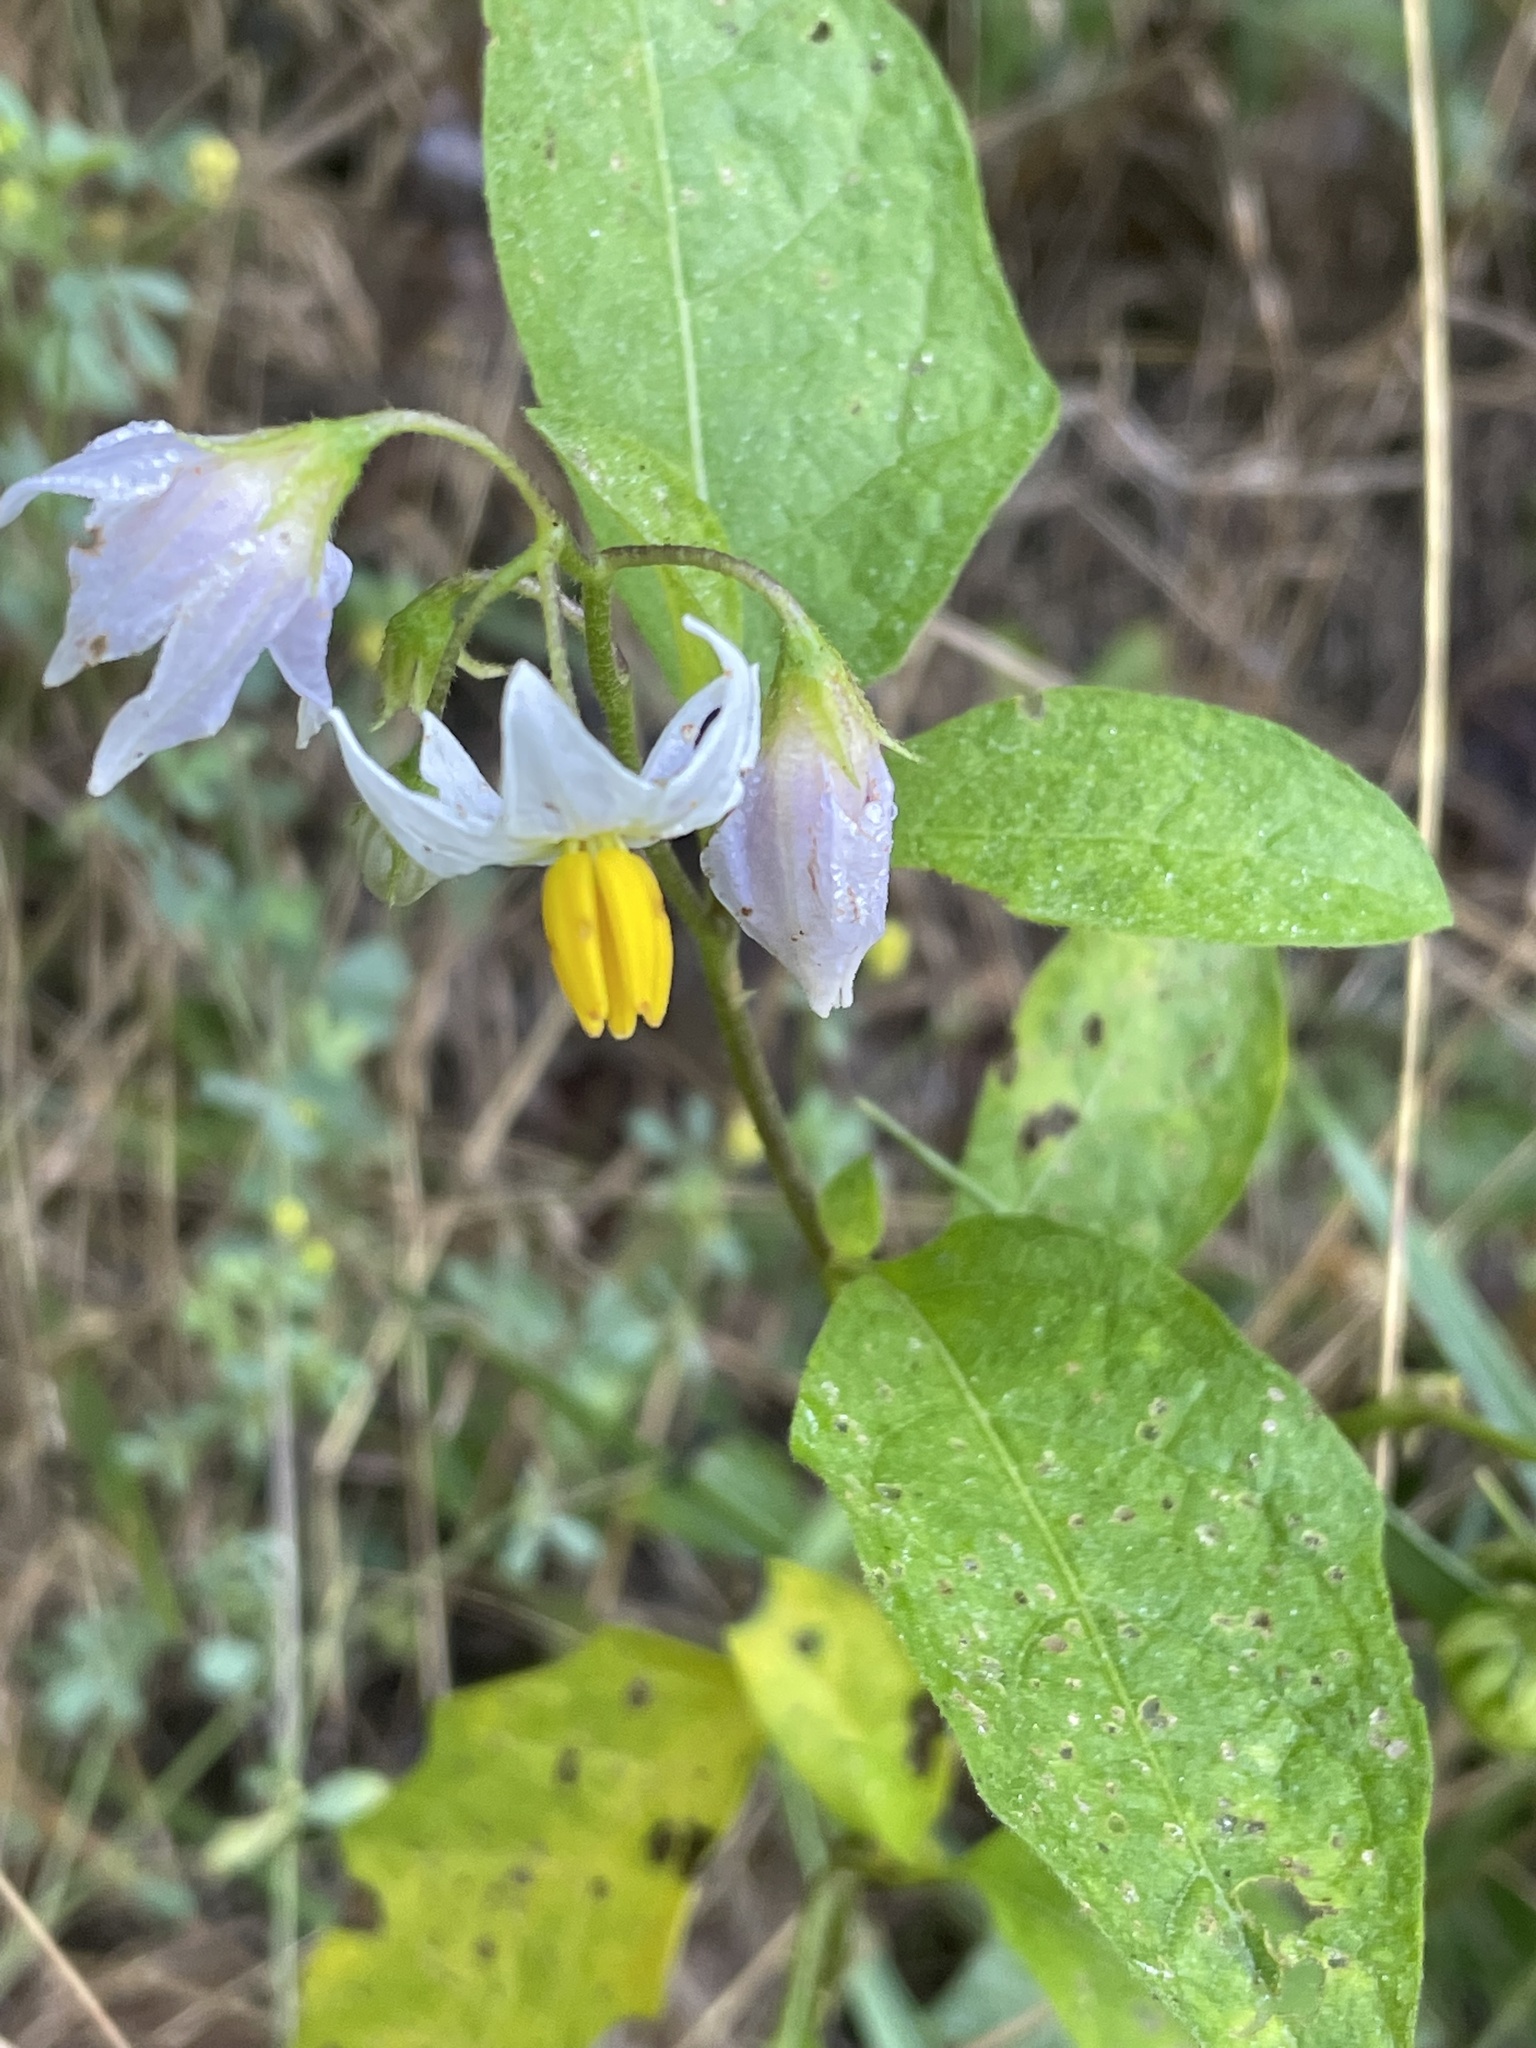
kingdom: Plantae
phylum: Tracheophyta
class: Magnoliopsida
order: Solanales
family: Solanaceae
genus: Solanum
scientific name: Solanum carolinense
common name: Horse-nettle
